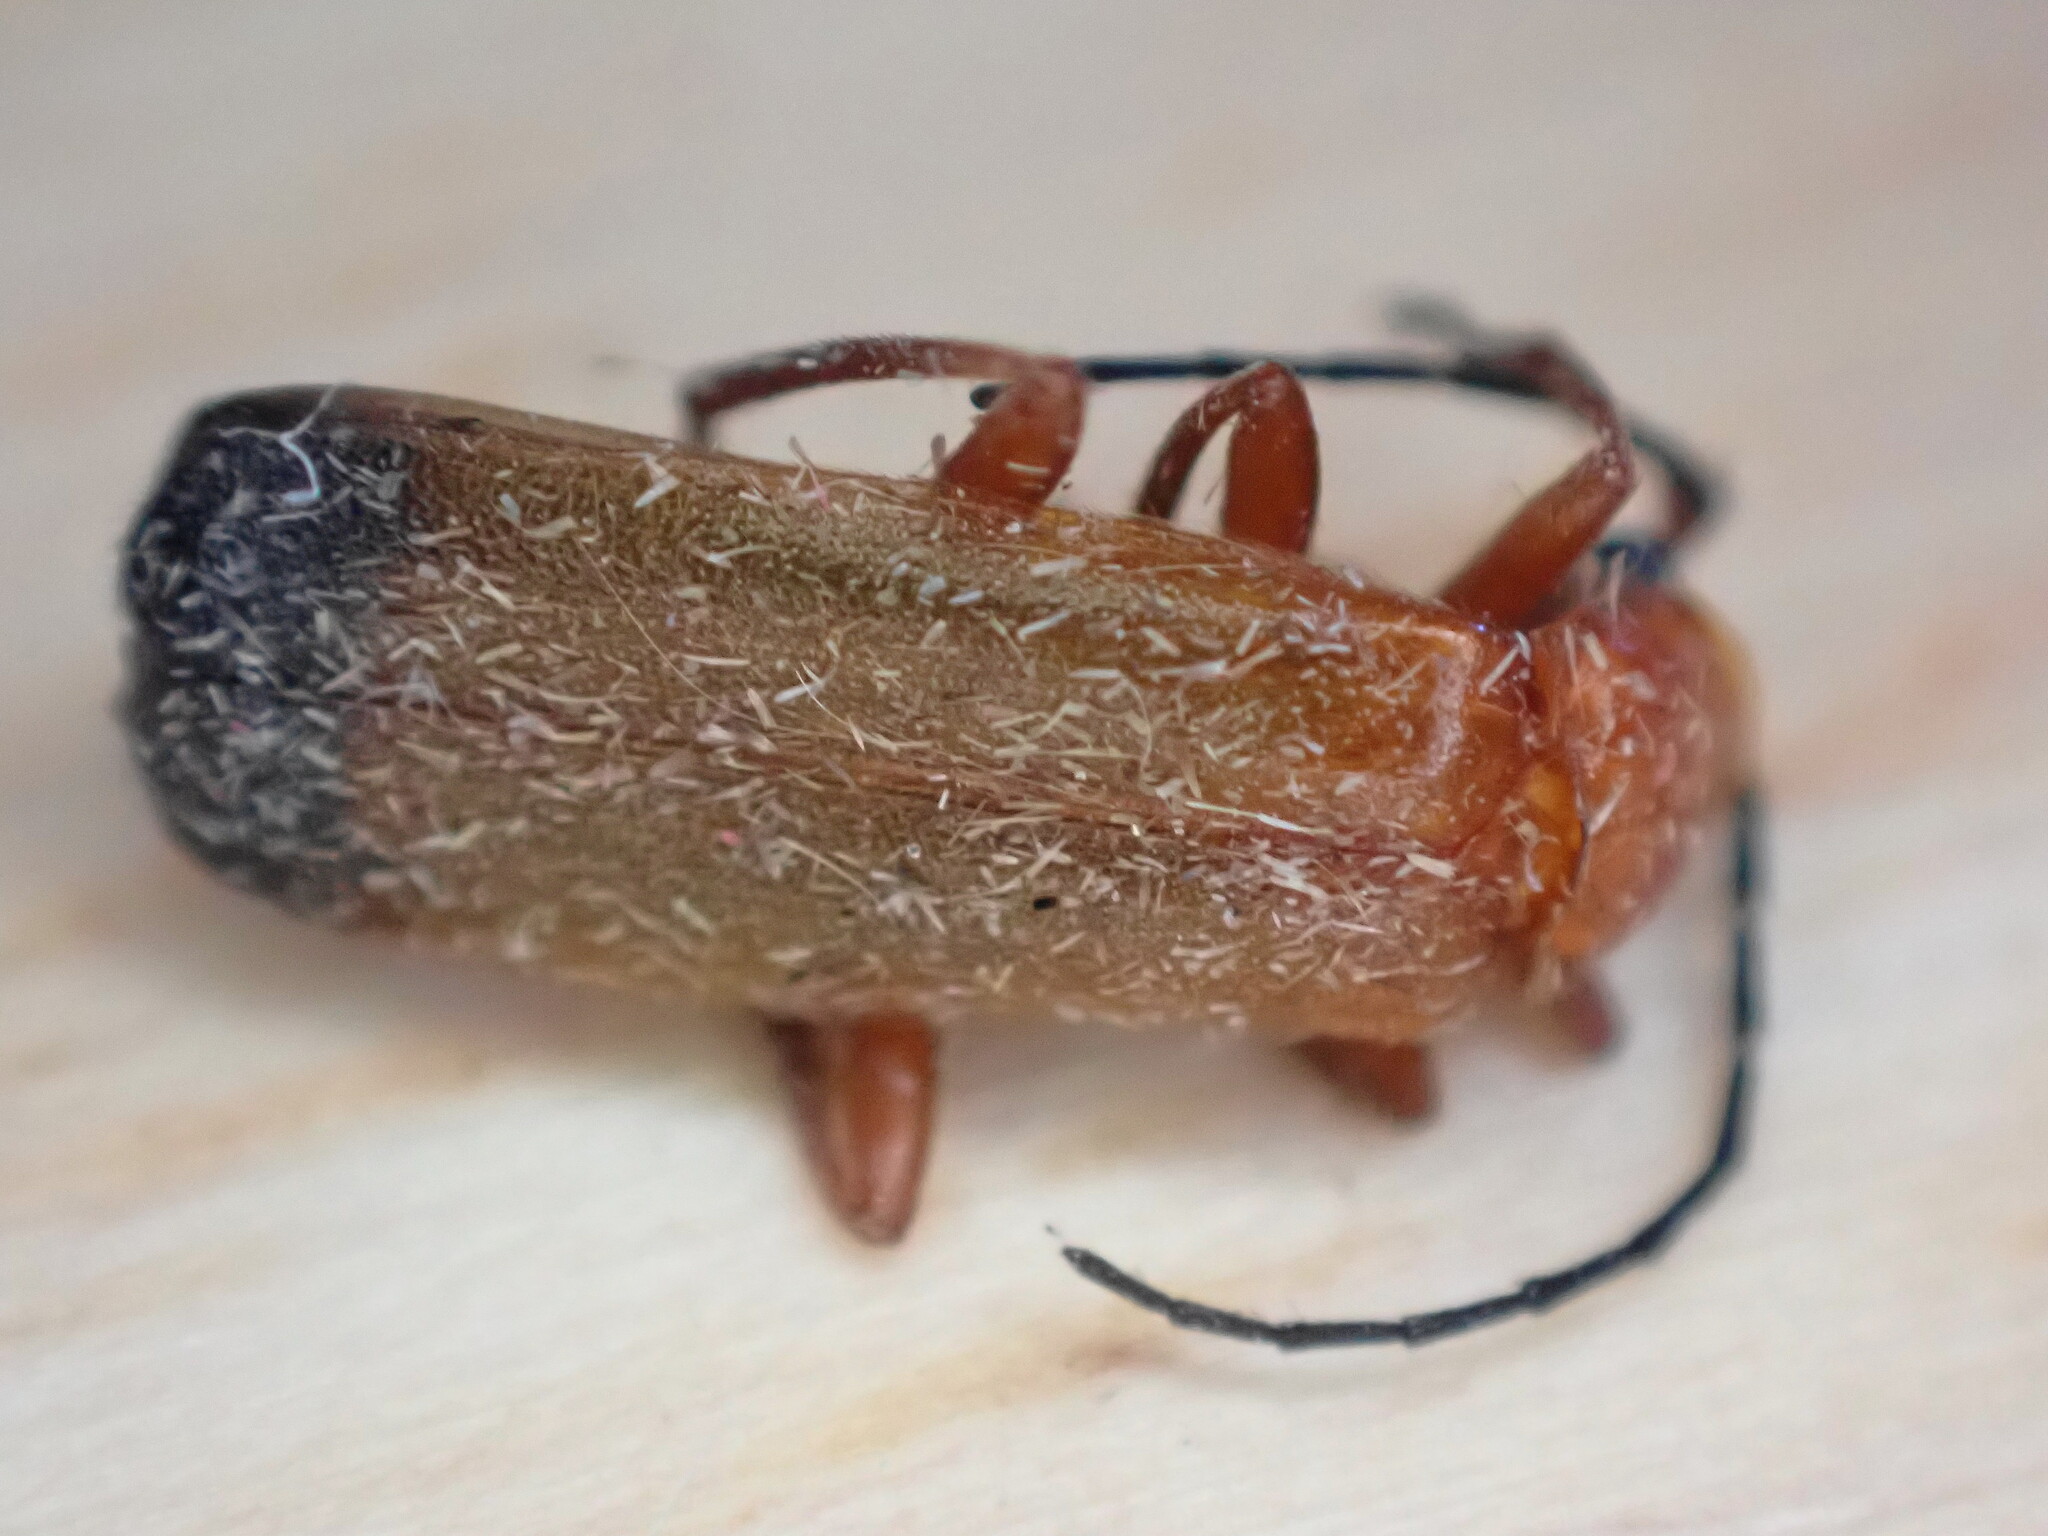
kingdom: Animalia
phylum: Arthropoda
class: Insecta
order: Coleoptera
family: Cantharidae
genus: Rhagonycha
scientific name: Rhagonycha fulva
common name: Common red soldier beetle
